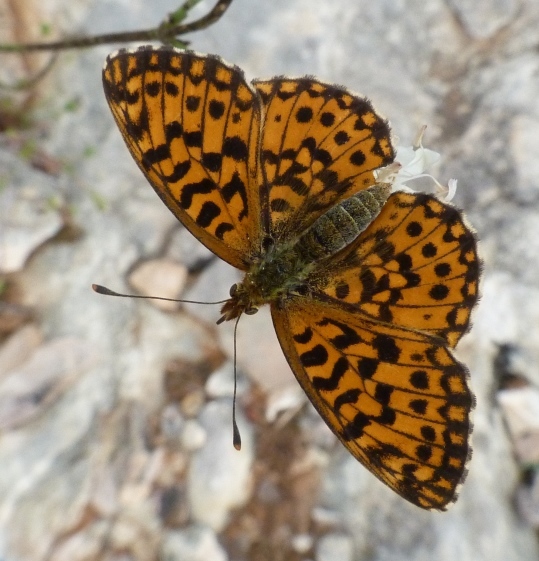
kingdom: Animalia
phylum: Arthropoda
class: Insecta
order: Lepidoptera
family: Nymphalidae
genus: Boloria
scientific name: Boloria dia
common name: Weaver's fritillary
